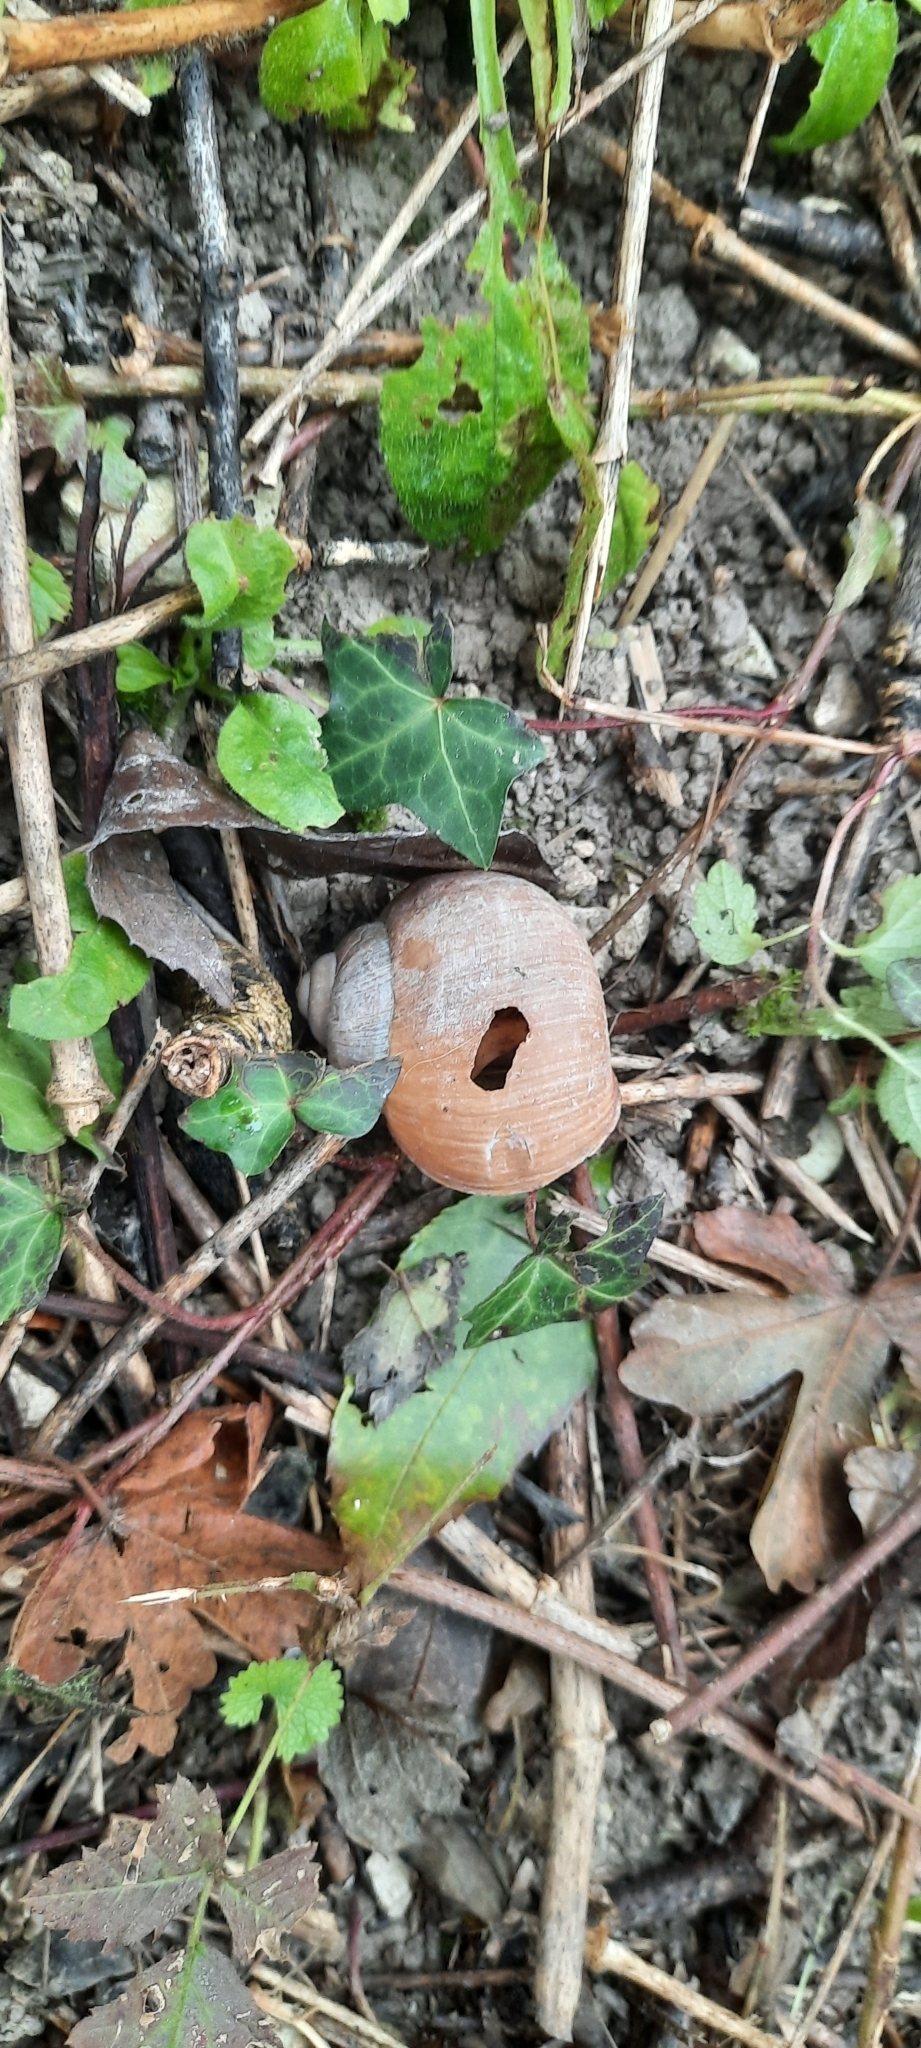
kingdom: Animalia
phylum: Mollusca
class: Gastropoda
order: Stylommatophora
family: Helicidae
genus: Helix
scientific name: Helix pomatia
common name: Roman snail
